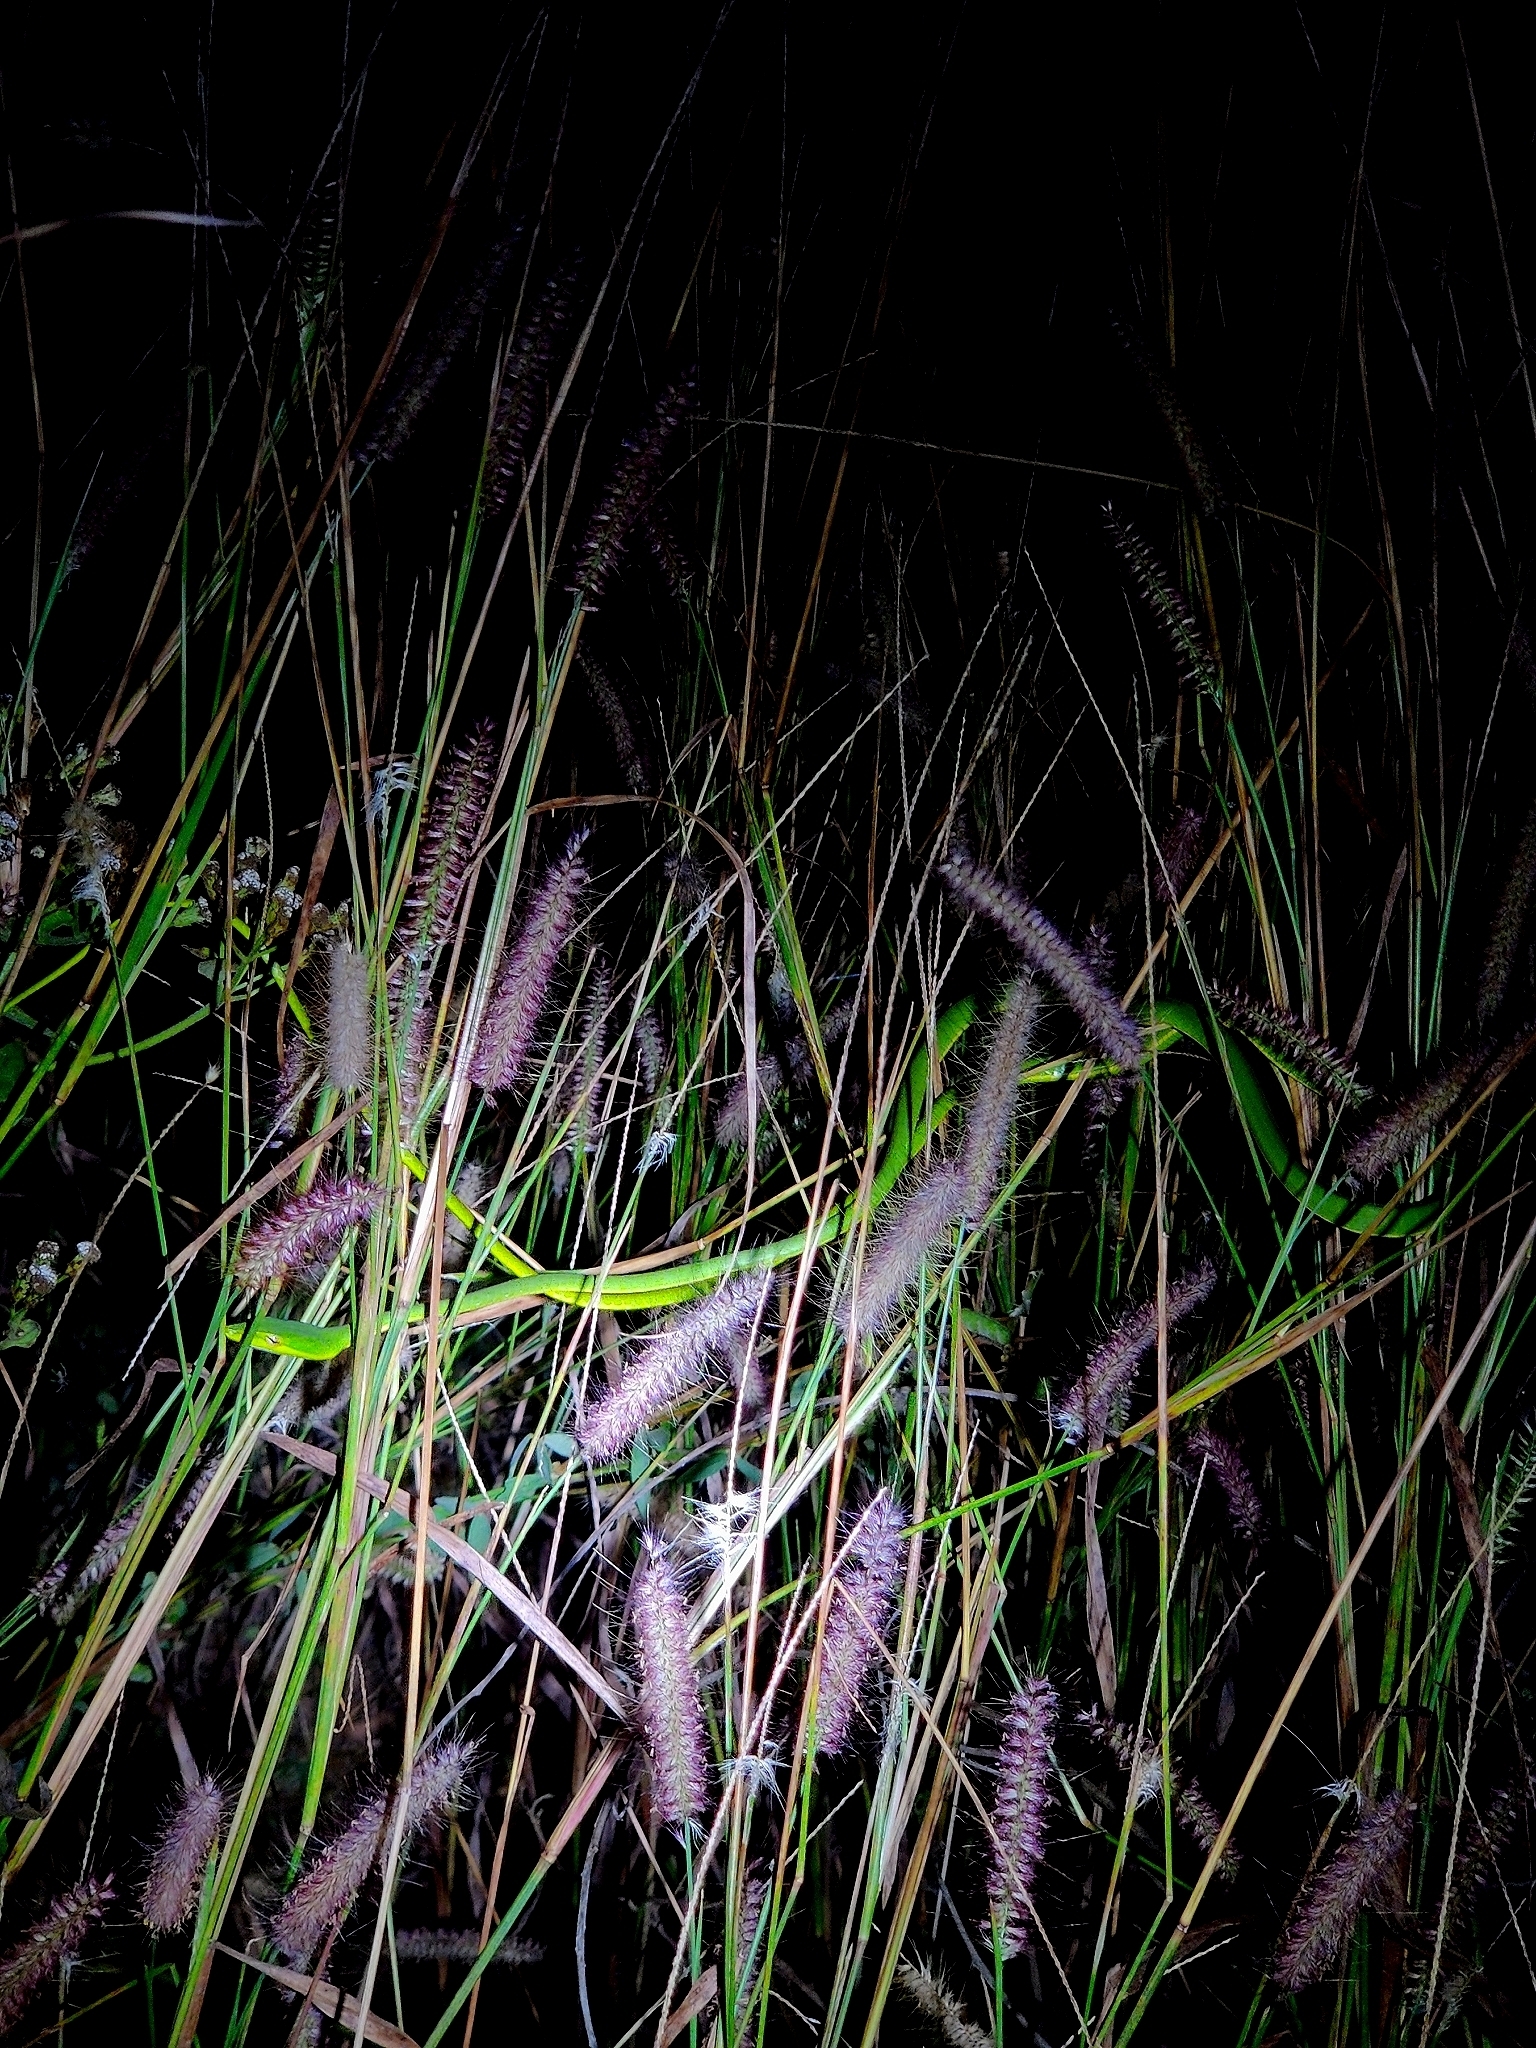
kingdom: Animalia
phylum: Chordata
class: Squamata
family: Colubridae
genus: Ahaetulla
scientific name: Ahaetulla oxyrhyncha
